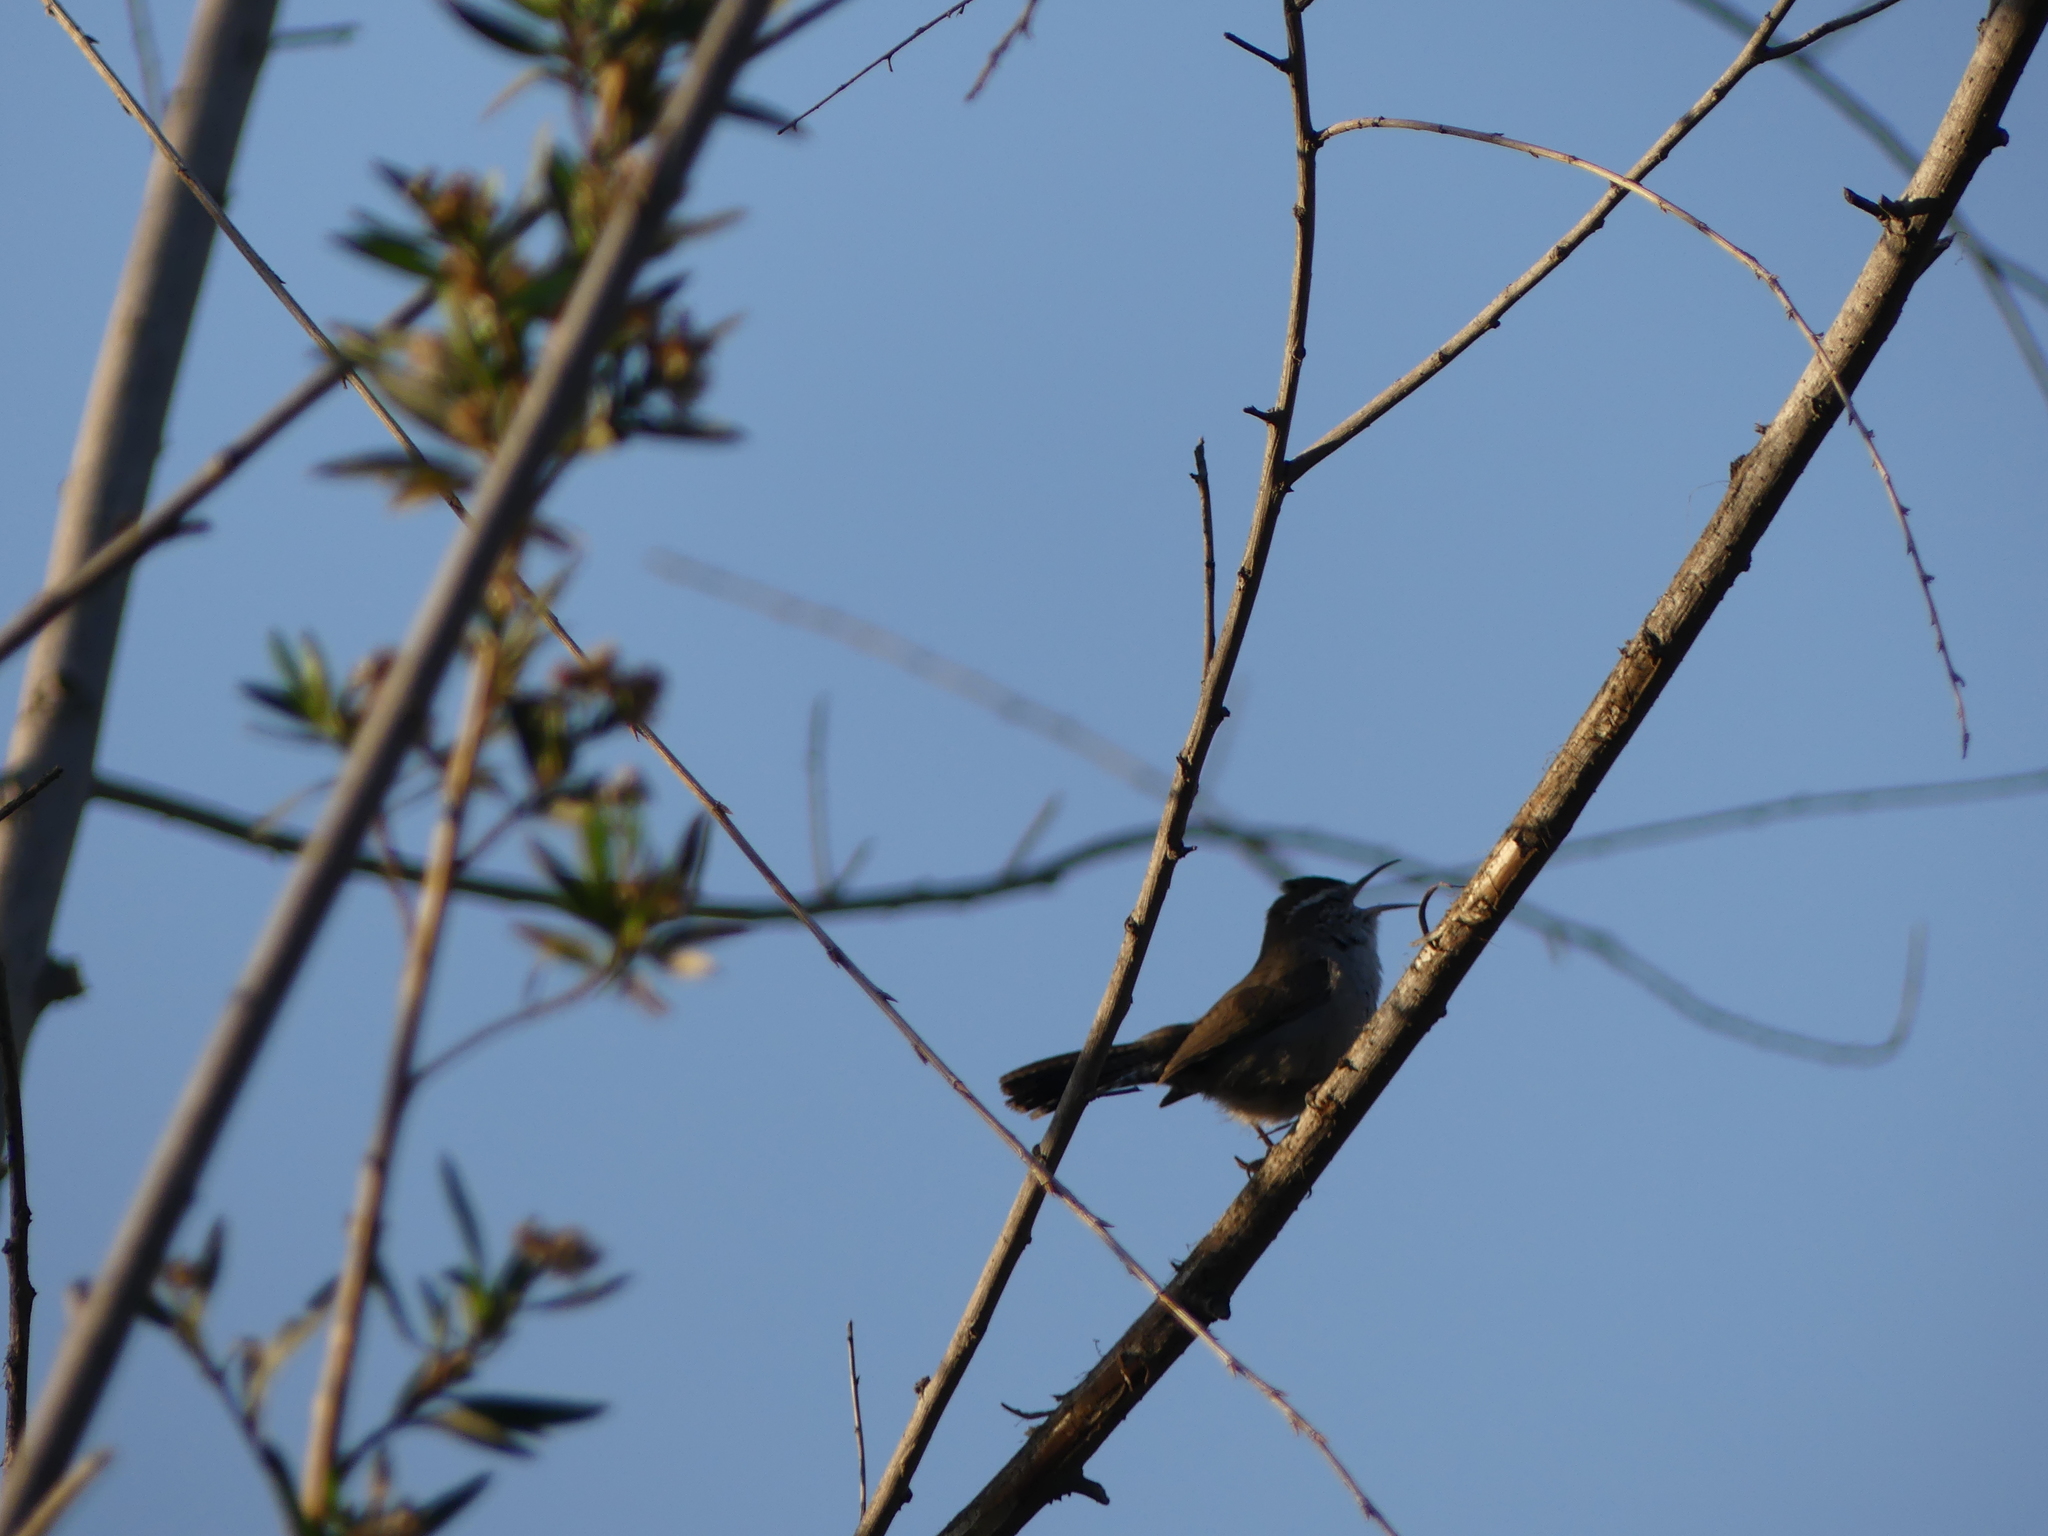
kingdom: Animalia
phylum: Chordata
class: Aves
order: Passeriformes
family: Troglodytidae
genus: Thryomanes
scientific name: Thryomanes bewickii
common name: Bewick's wren
